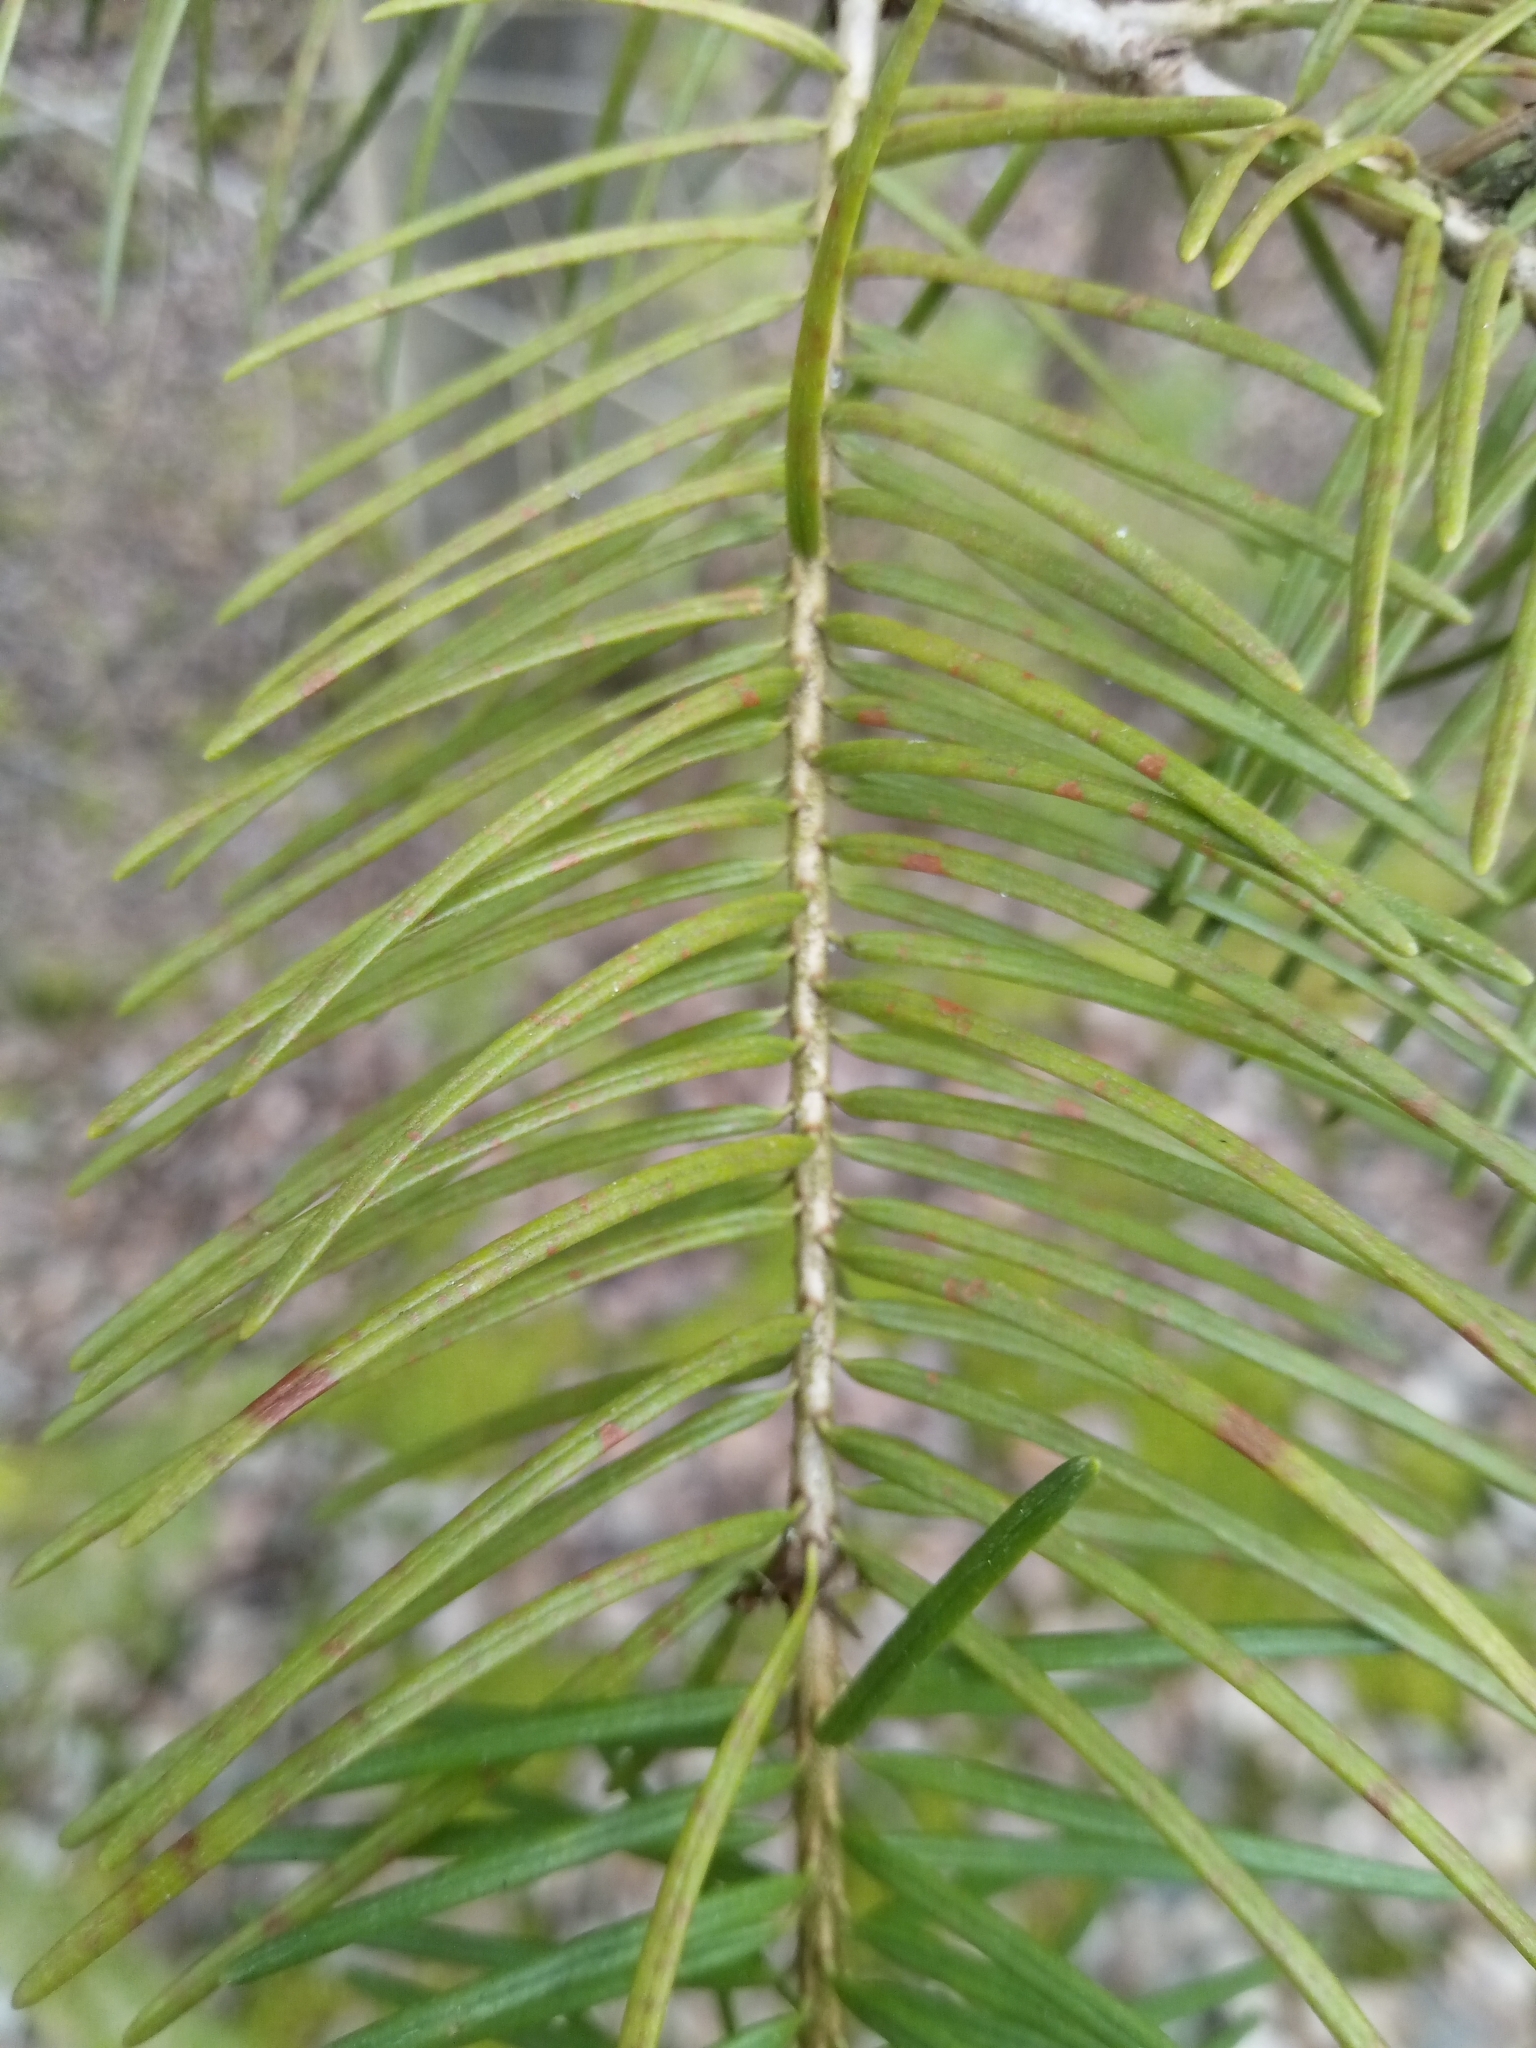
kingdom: Plantae
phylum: Tracheophyta
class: Pinopsida
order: Pinales
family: Pinaceae
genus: Pseudotsuga
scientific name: Pseudotsuga menziesii
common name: Douglas fir
